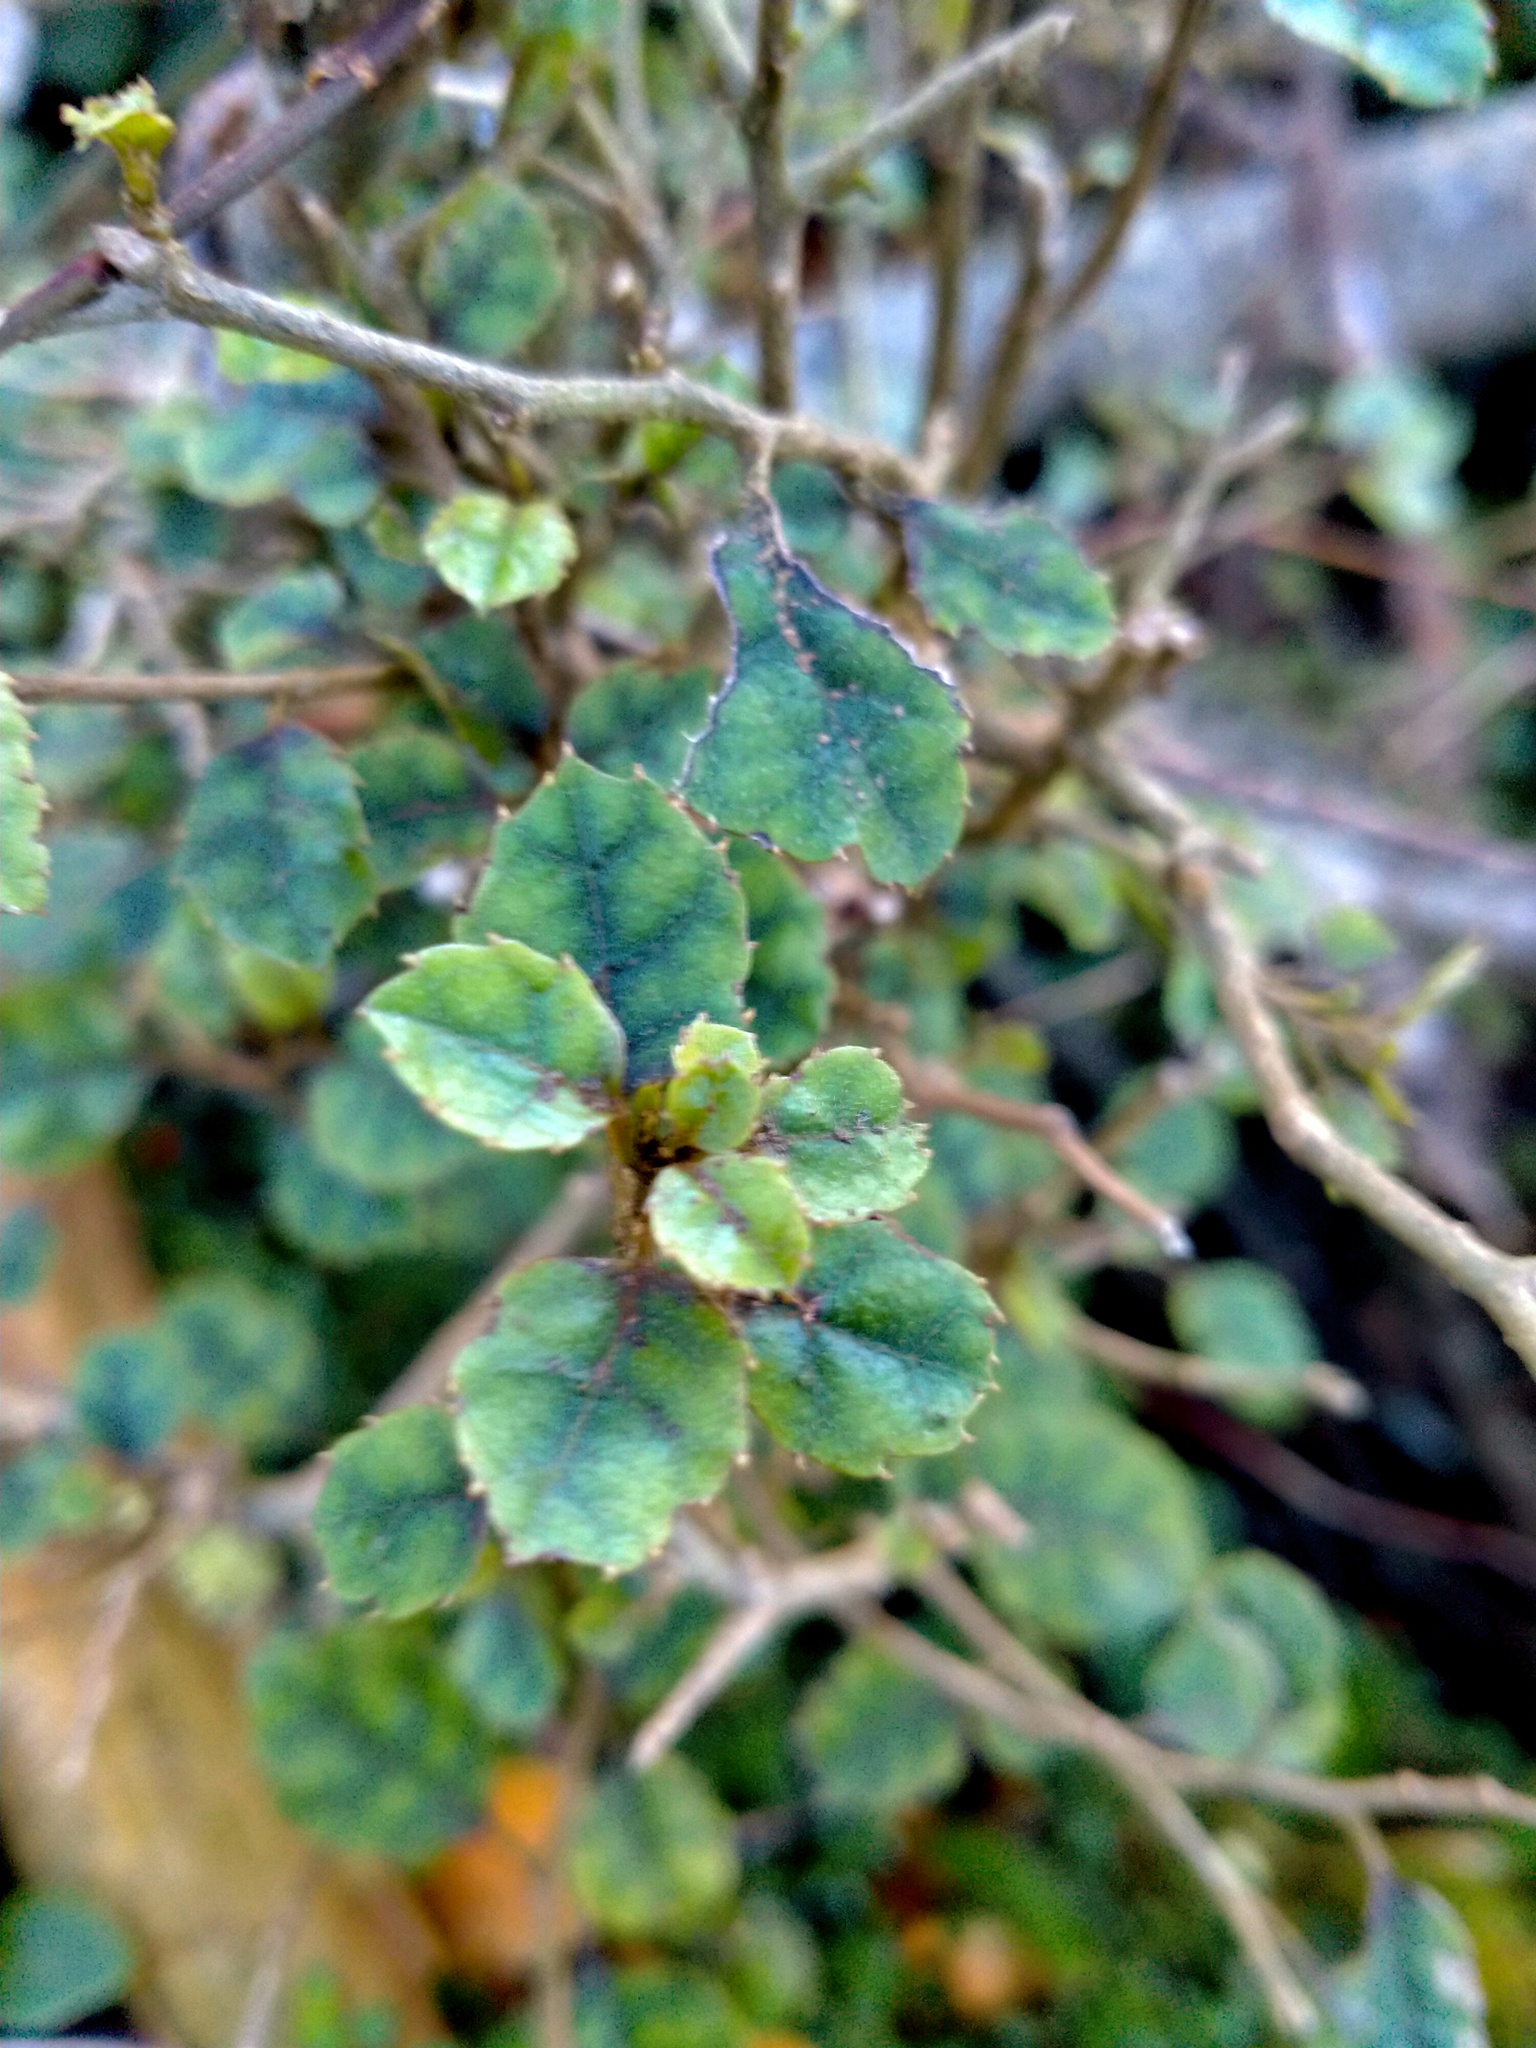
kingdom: Plantae
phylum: Tracheophyta
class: Magnoliopsida
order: Asterales
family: Rousseaceae
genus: Carpodetus
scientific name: Carpodetus serratus
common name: White mapau
